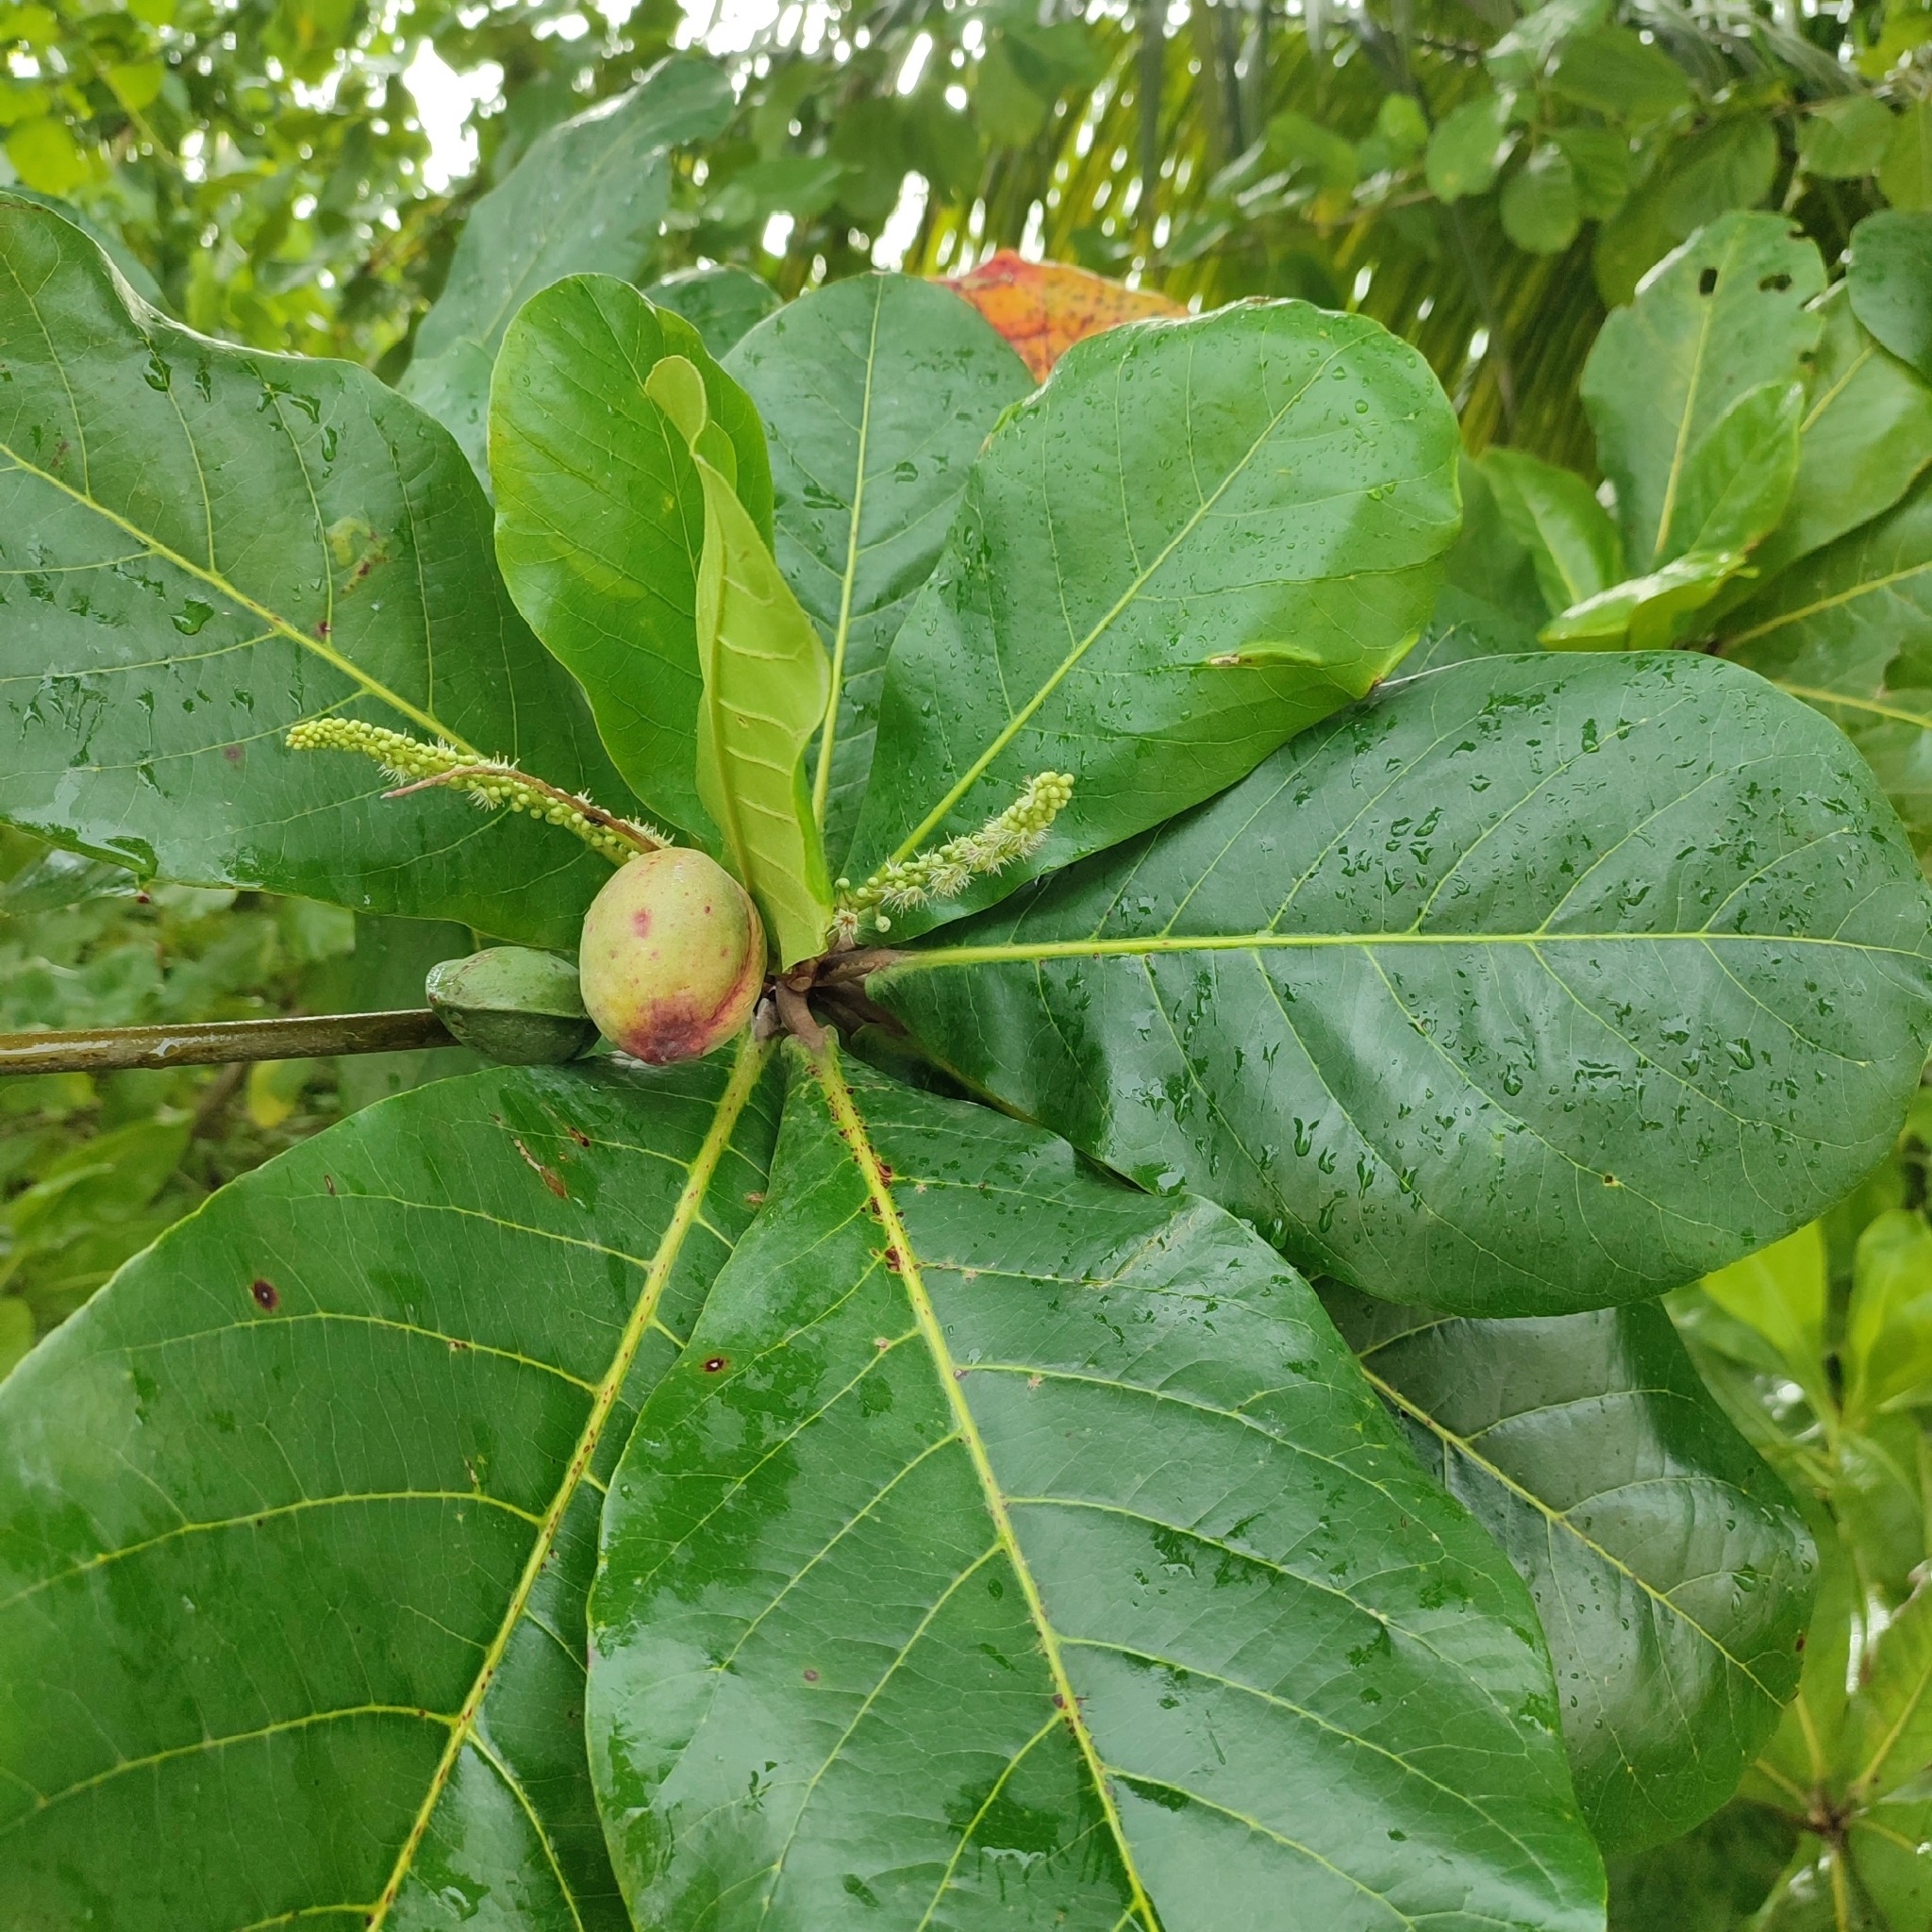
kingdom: Plantae
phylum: Tracheophyta
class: Magnoliopsida
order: Myrtales
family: Combretaceae
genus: Terminalia
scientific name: Terminalia catappa
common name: Tropical almond
